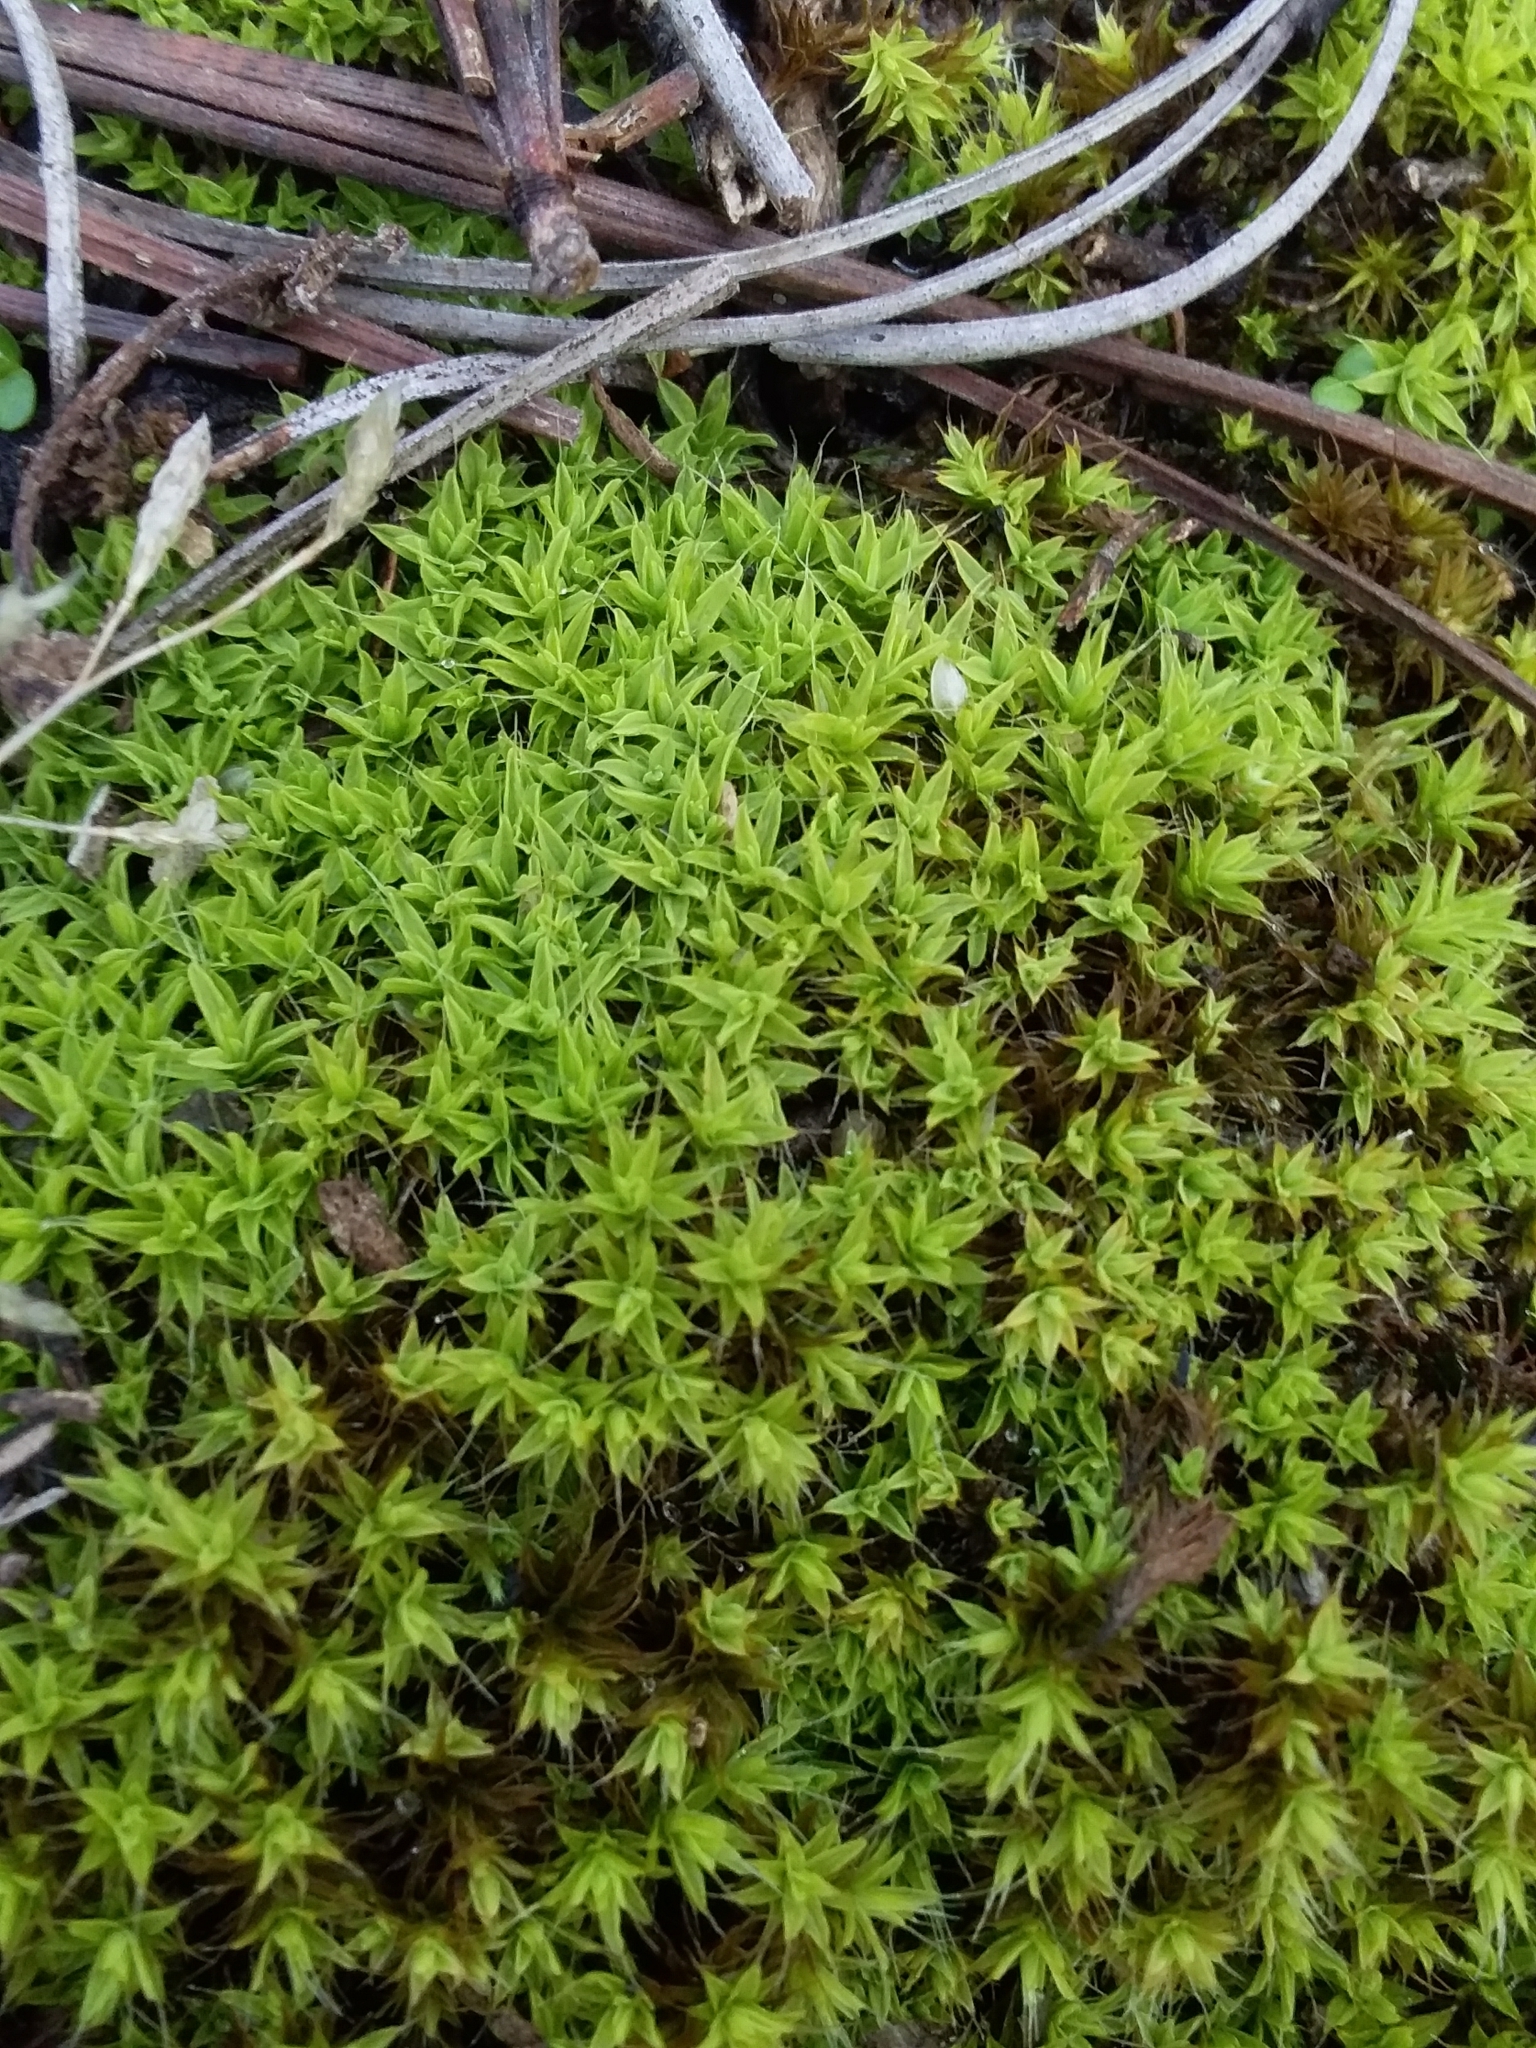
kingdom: Plantae
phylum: Bryophyta
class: Bryopsida
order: Pottiales
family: Pottiaceae
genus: Syntrichia
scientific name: Syntrichia antarctica
